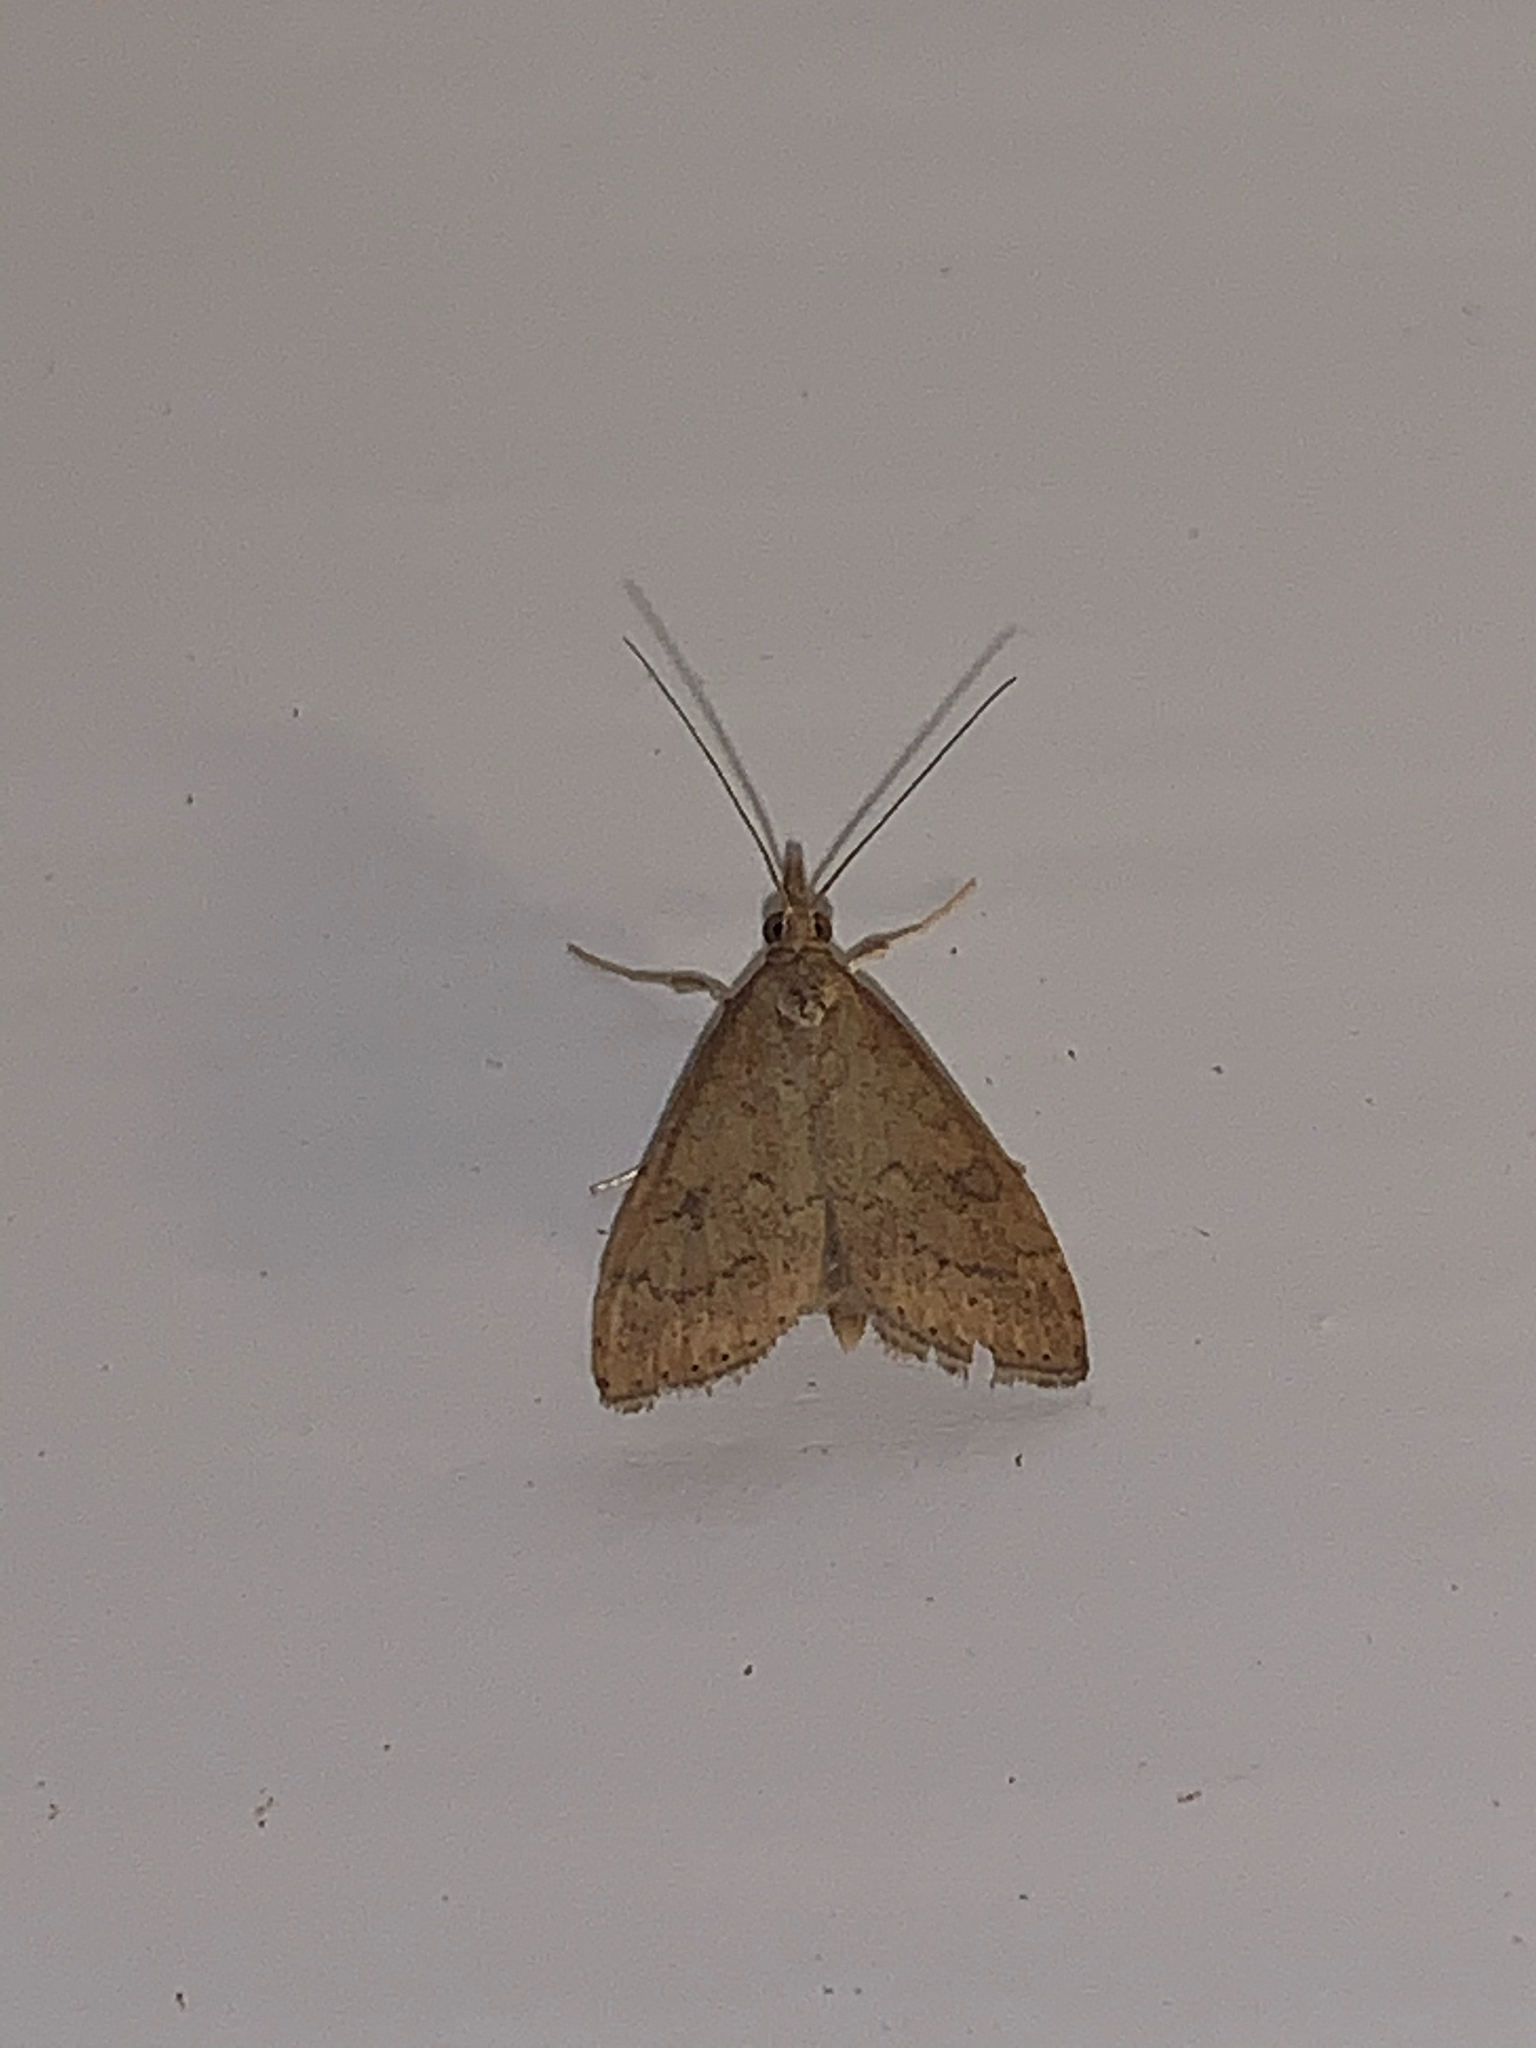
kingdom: Animalia
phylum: Arthropoda
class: Insecta
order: Lepidoptera
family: Crambidae
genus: Udea
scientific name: Udea rubigalis
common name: Celery leaftier moth
